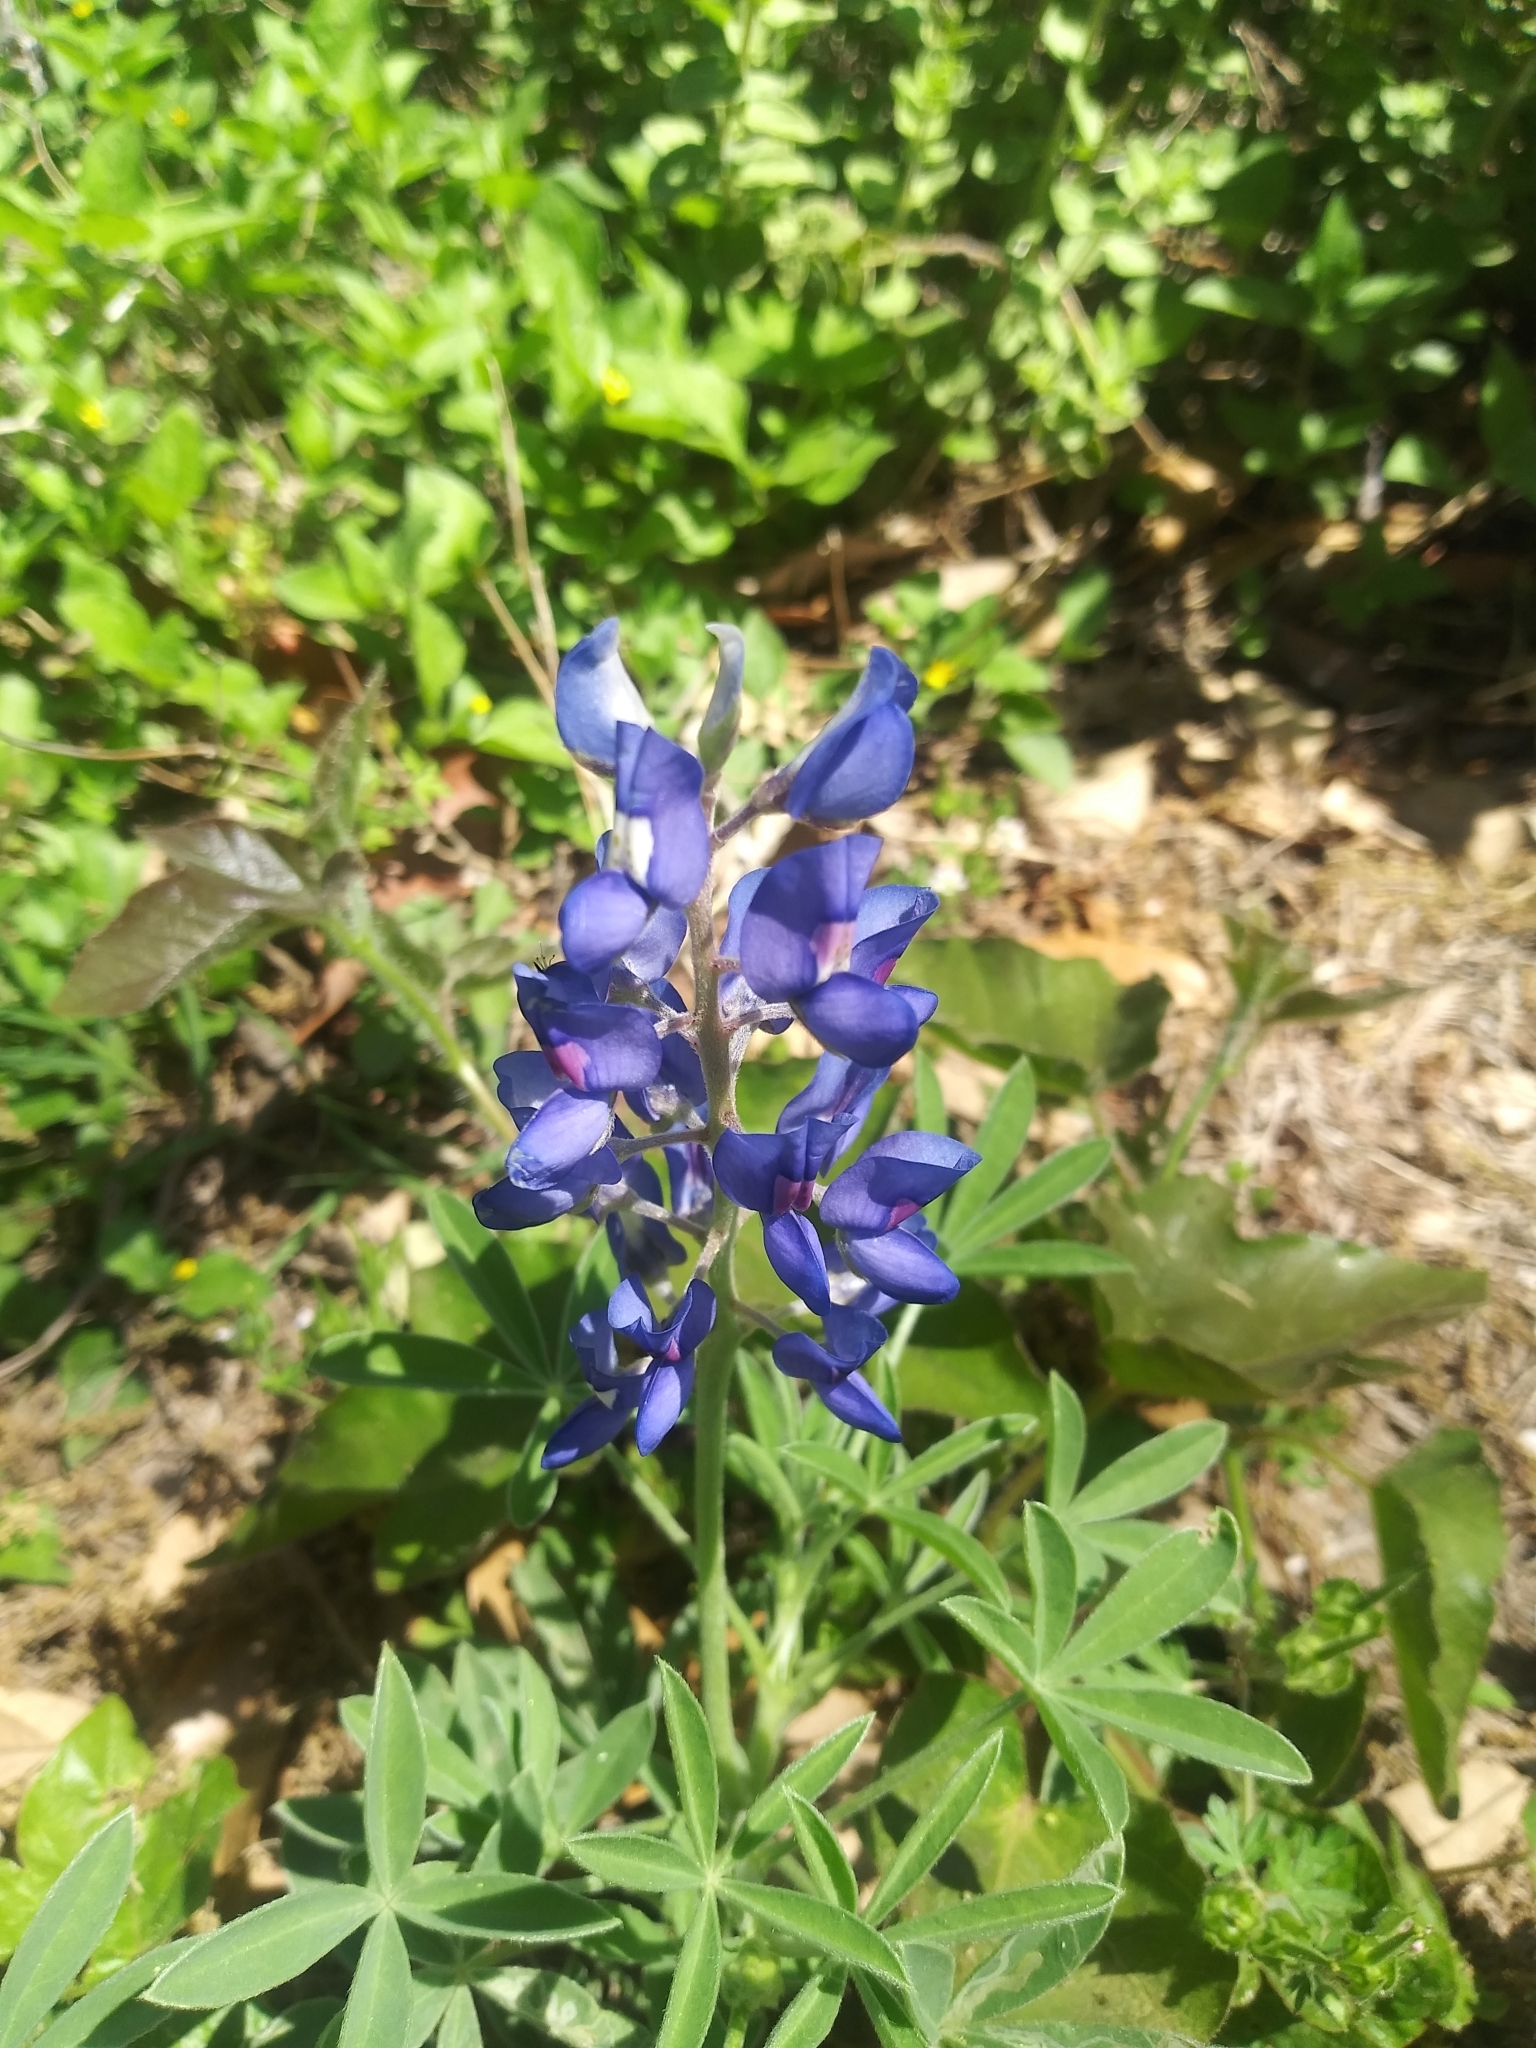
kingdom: Plantae
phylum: Tracheophyta
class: Magnoliopsida
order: Fabales
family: Fabaceae
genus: Lupinus
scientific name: Lupinus texensis
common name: Texas bluebonnet
